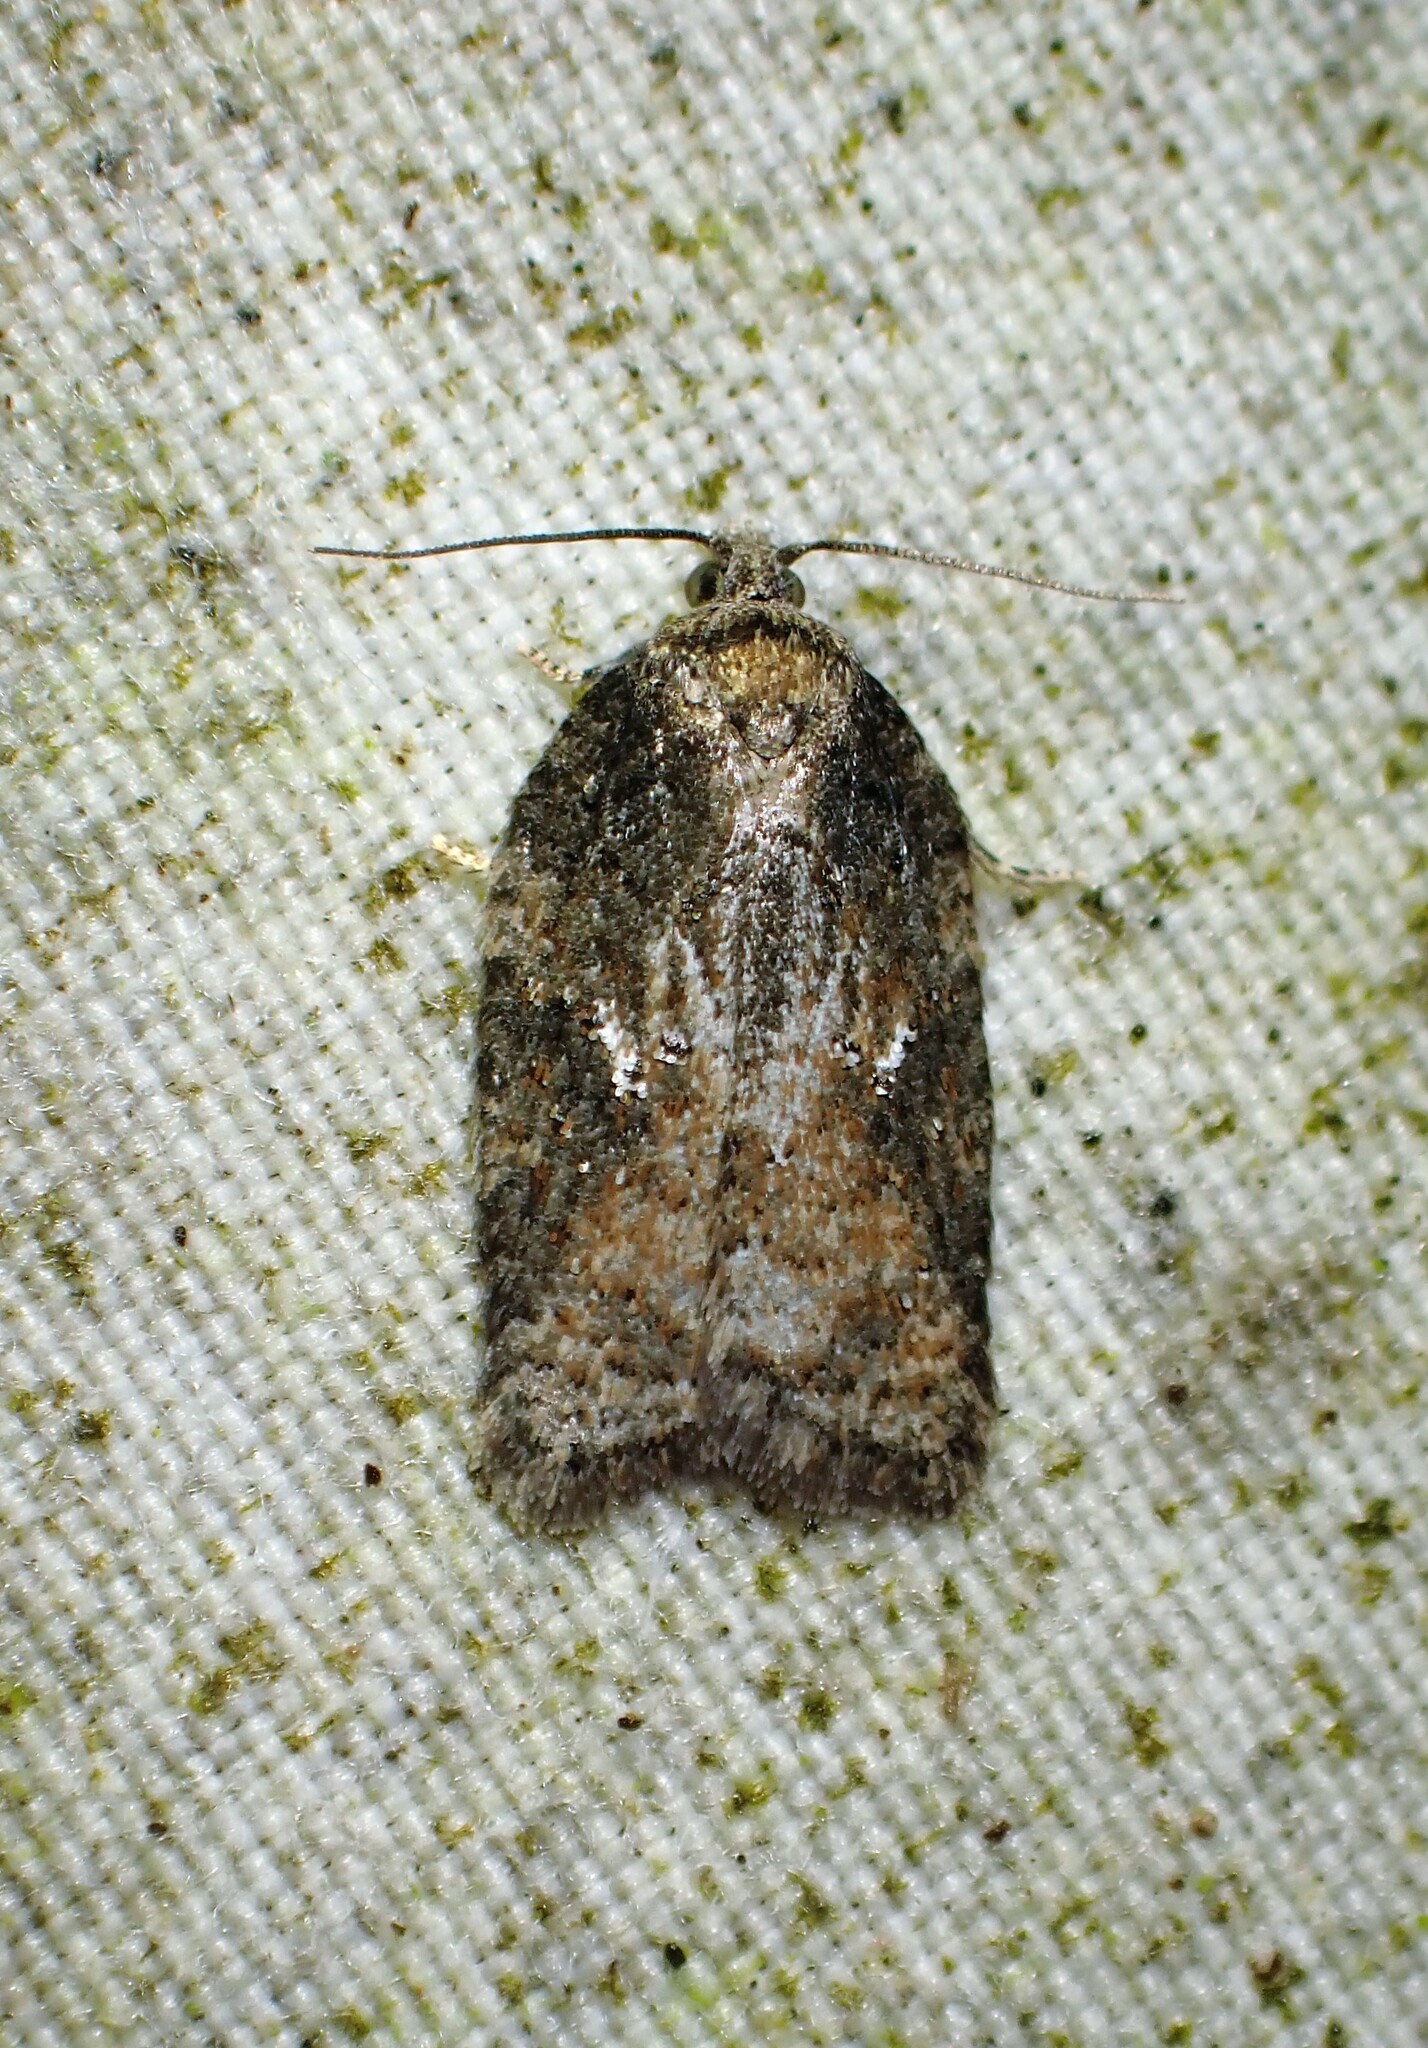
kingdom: Animalia
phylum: Arthropoda
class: Insecta
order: Lepidoptera
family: Tortricidae
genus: Acleris
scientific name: Acleris
